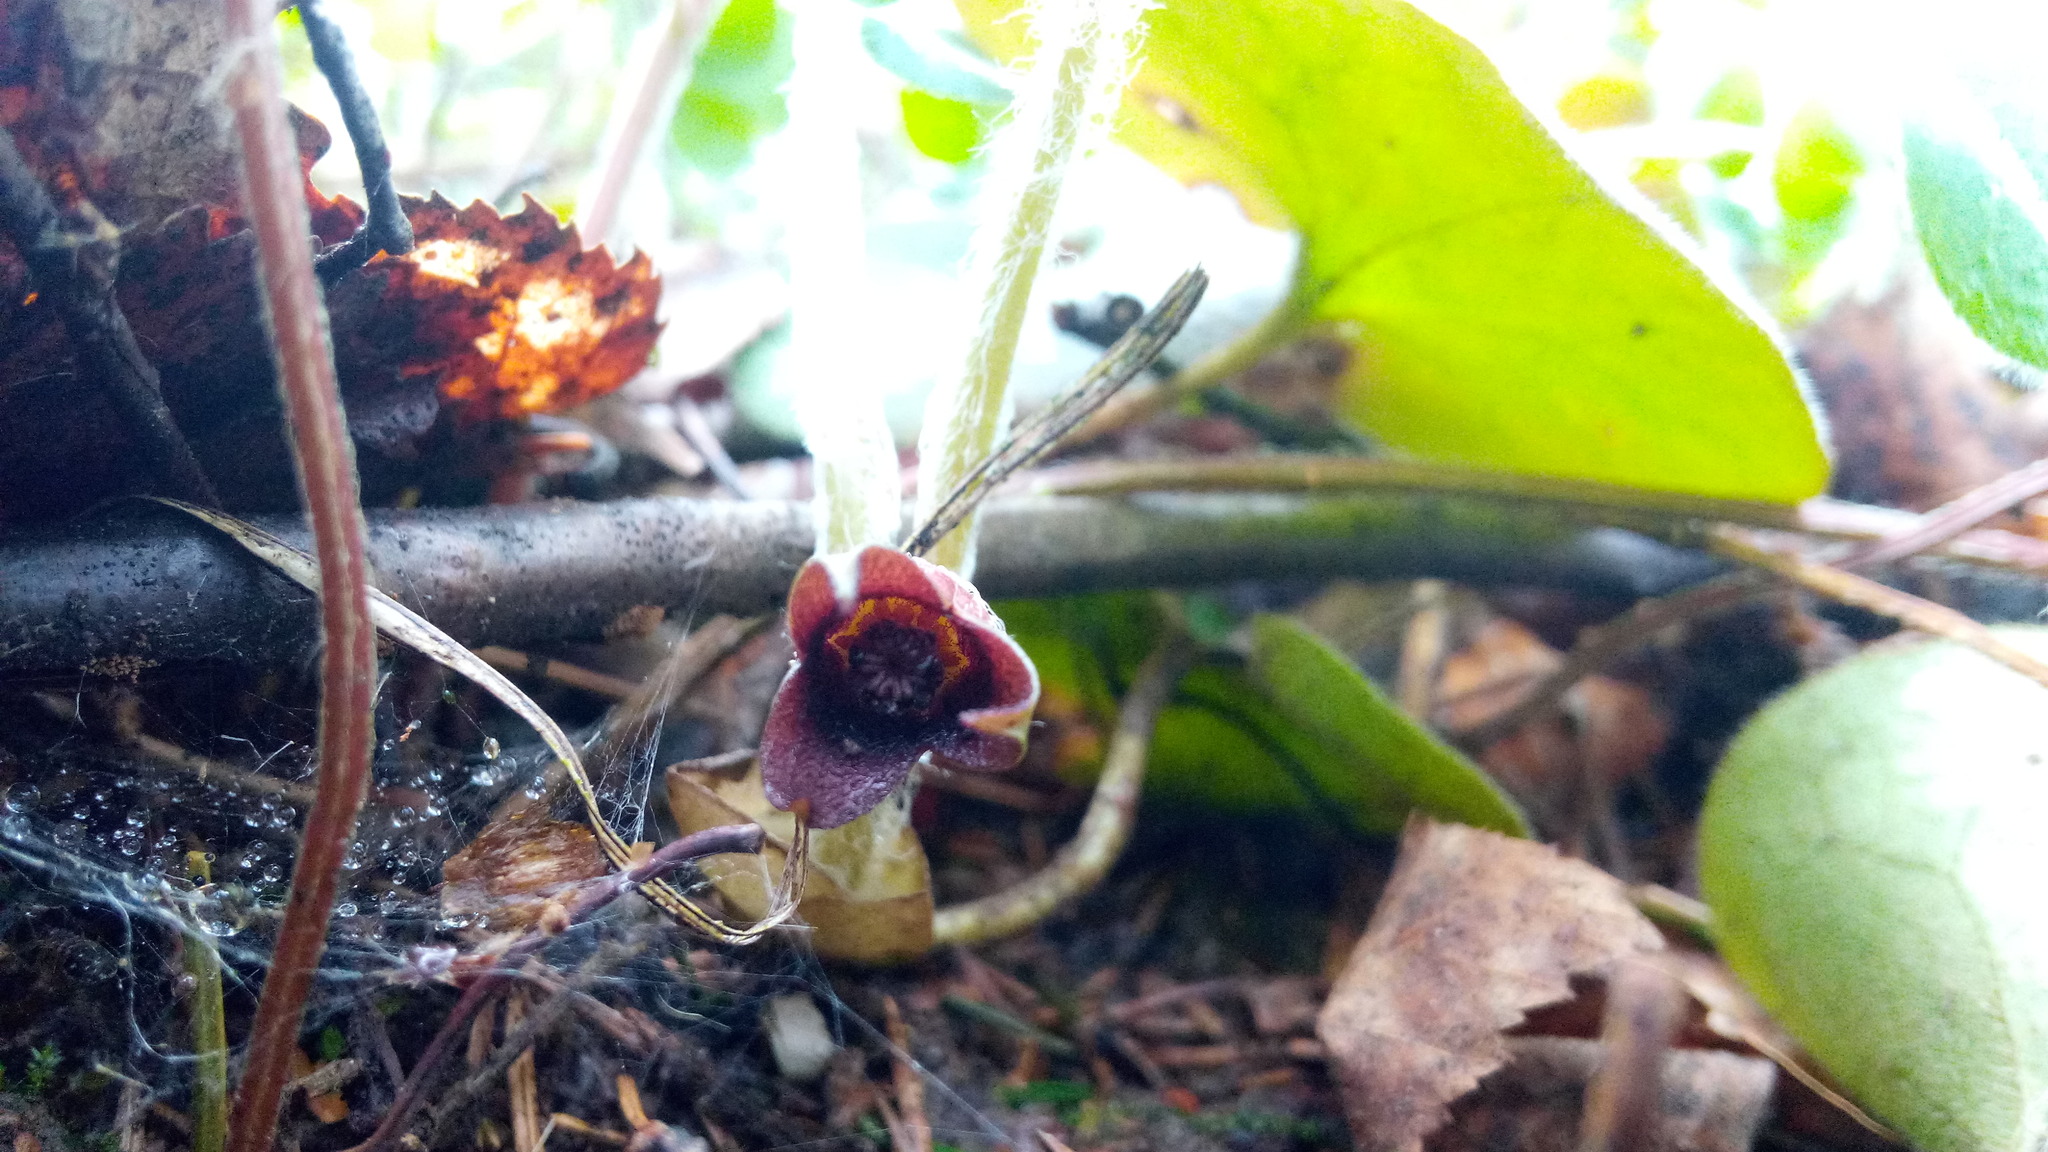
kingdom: Plantae
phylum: Tracheophyta
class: Magnoliopsida
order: Piperales
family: Aristolochiaceae
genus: Asarum
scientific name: Asarum europaeum
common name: Asarabacca
